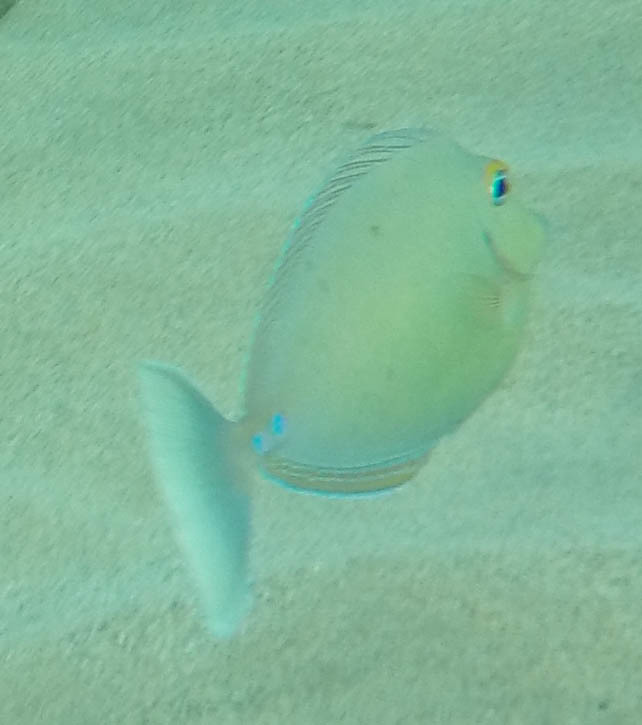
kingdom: Animalia
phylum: Chordata
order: Perciformes
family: Acanthuridae
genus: Naso
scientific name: Naso unicornis
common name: Bluespine unicornfish
